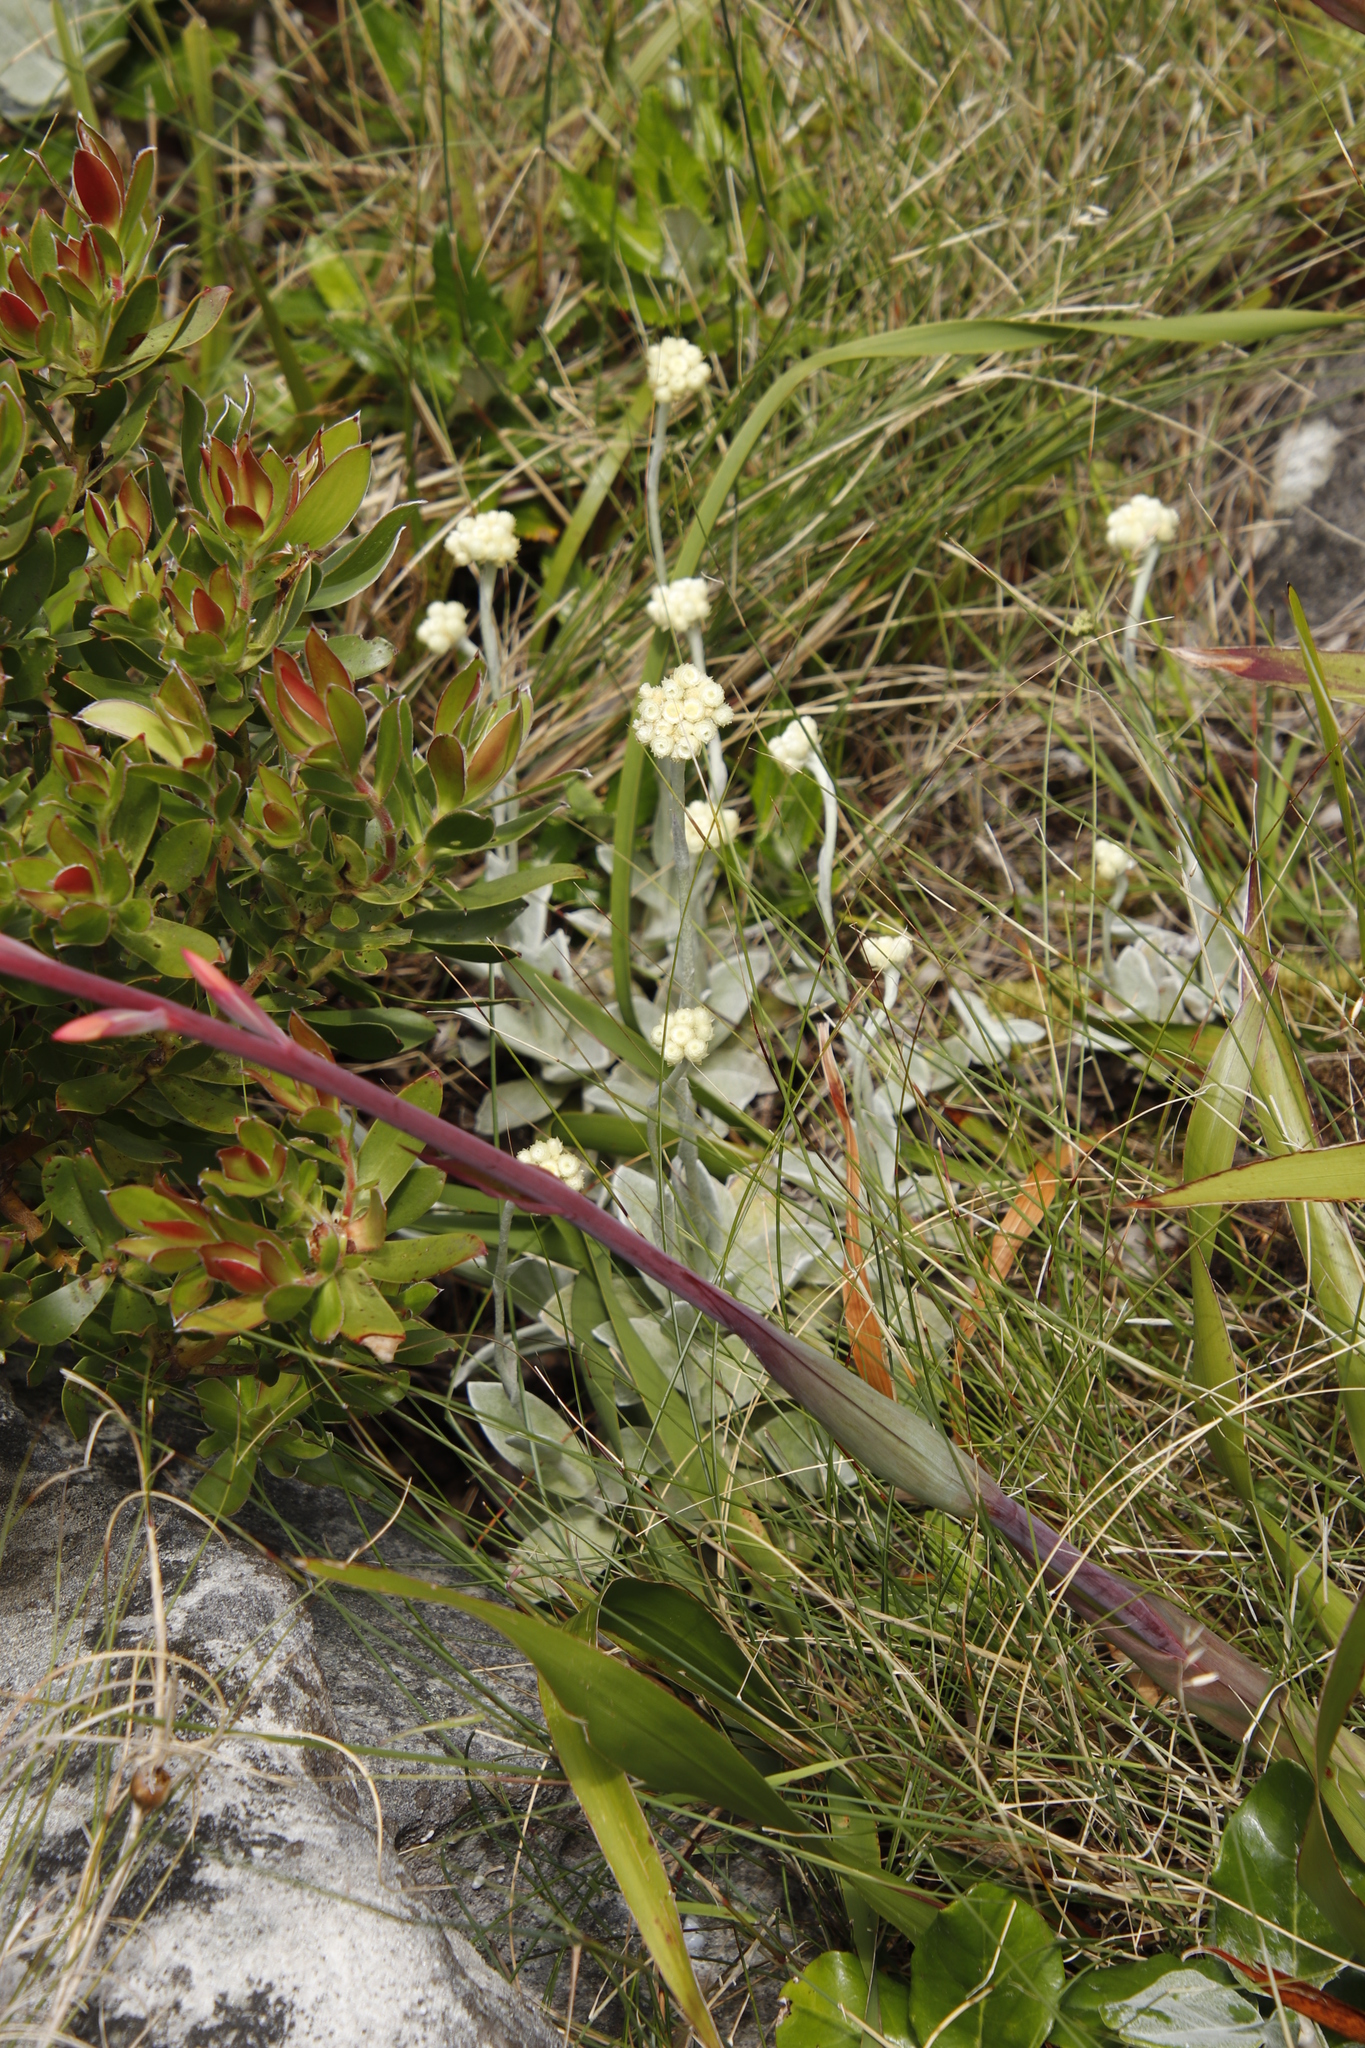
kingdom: Plantae
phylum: Tracheophyta
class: Magnoliopsida
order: Asterales
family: Asteraceae
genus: Helichrysum
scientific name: Helichrysum grandiflorum
